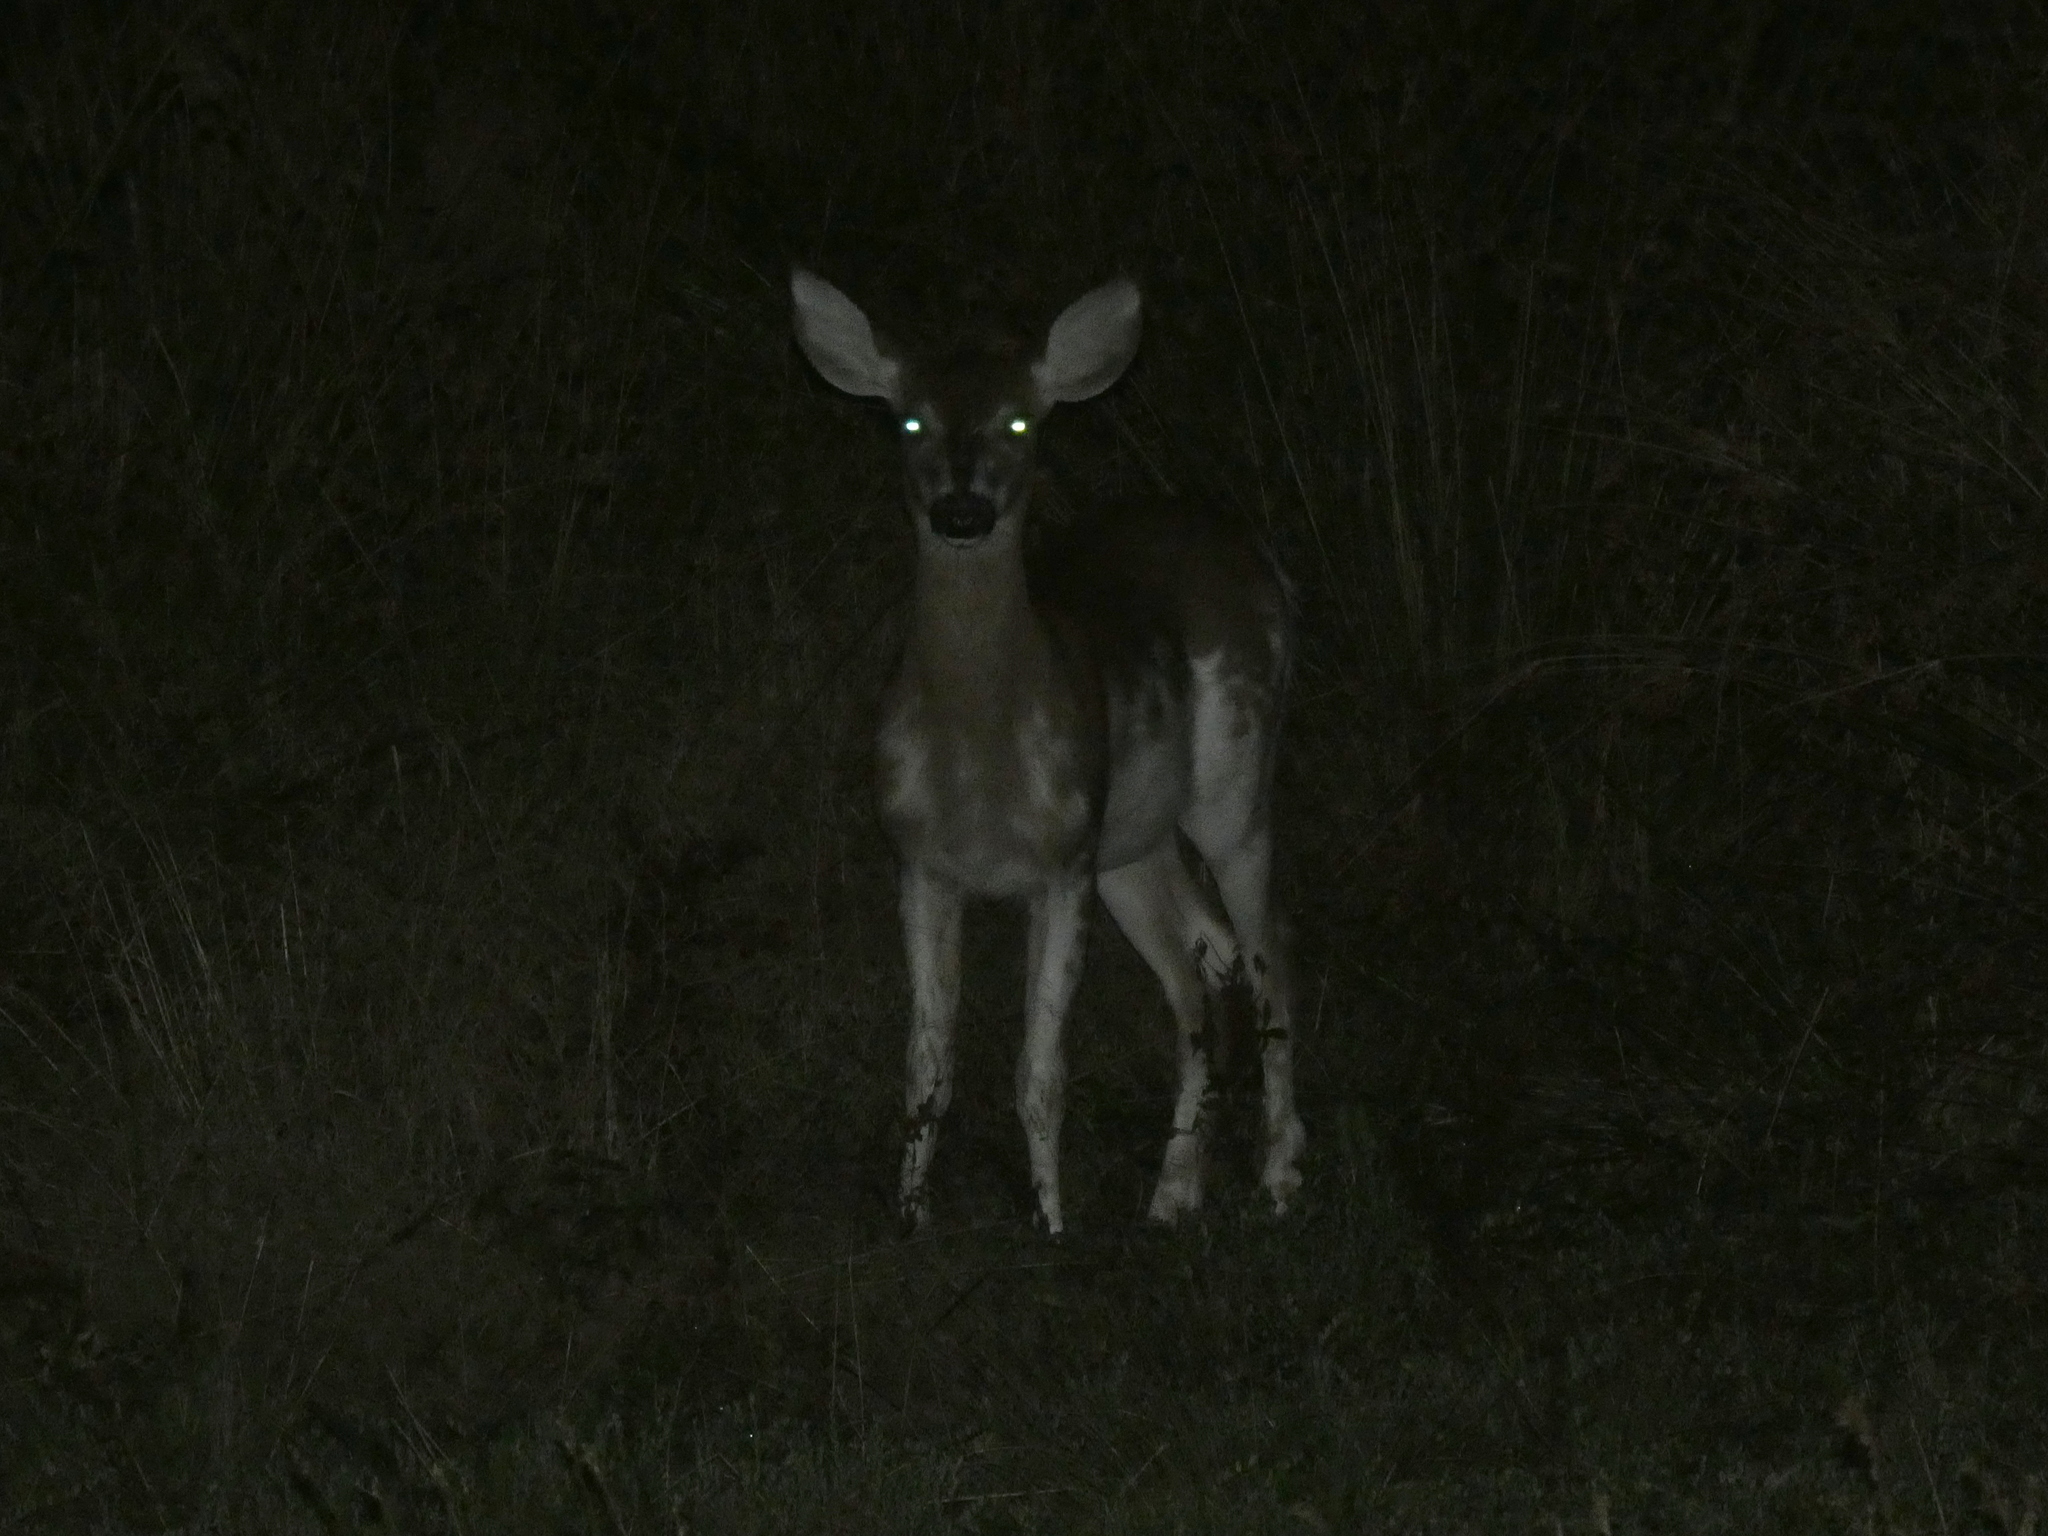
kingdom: Animalia
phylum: Chordata
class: Mammalia
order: Artiodactyla
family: Cervidae
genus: Odocoileus
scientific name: Odocoileus virginianus
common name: White-tailed deer
